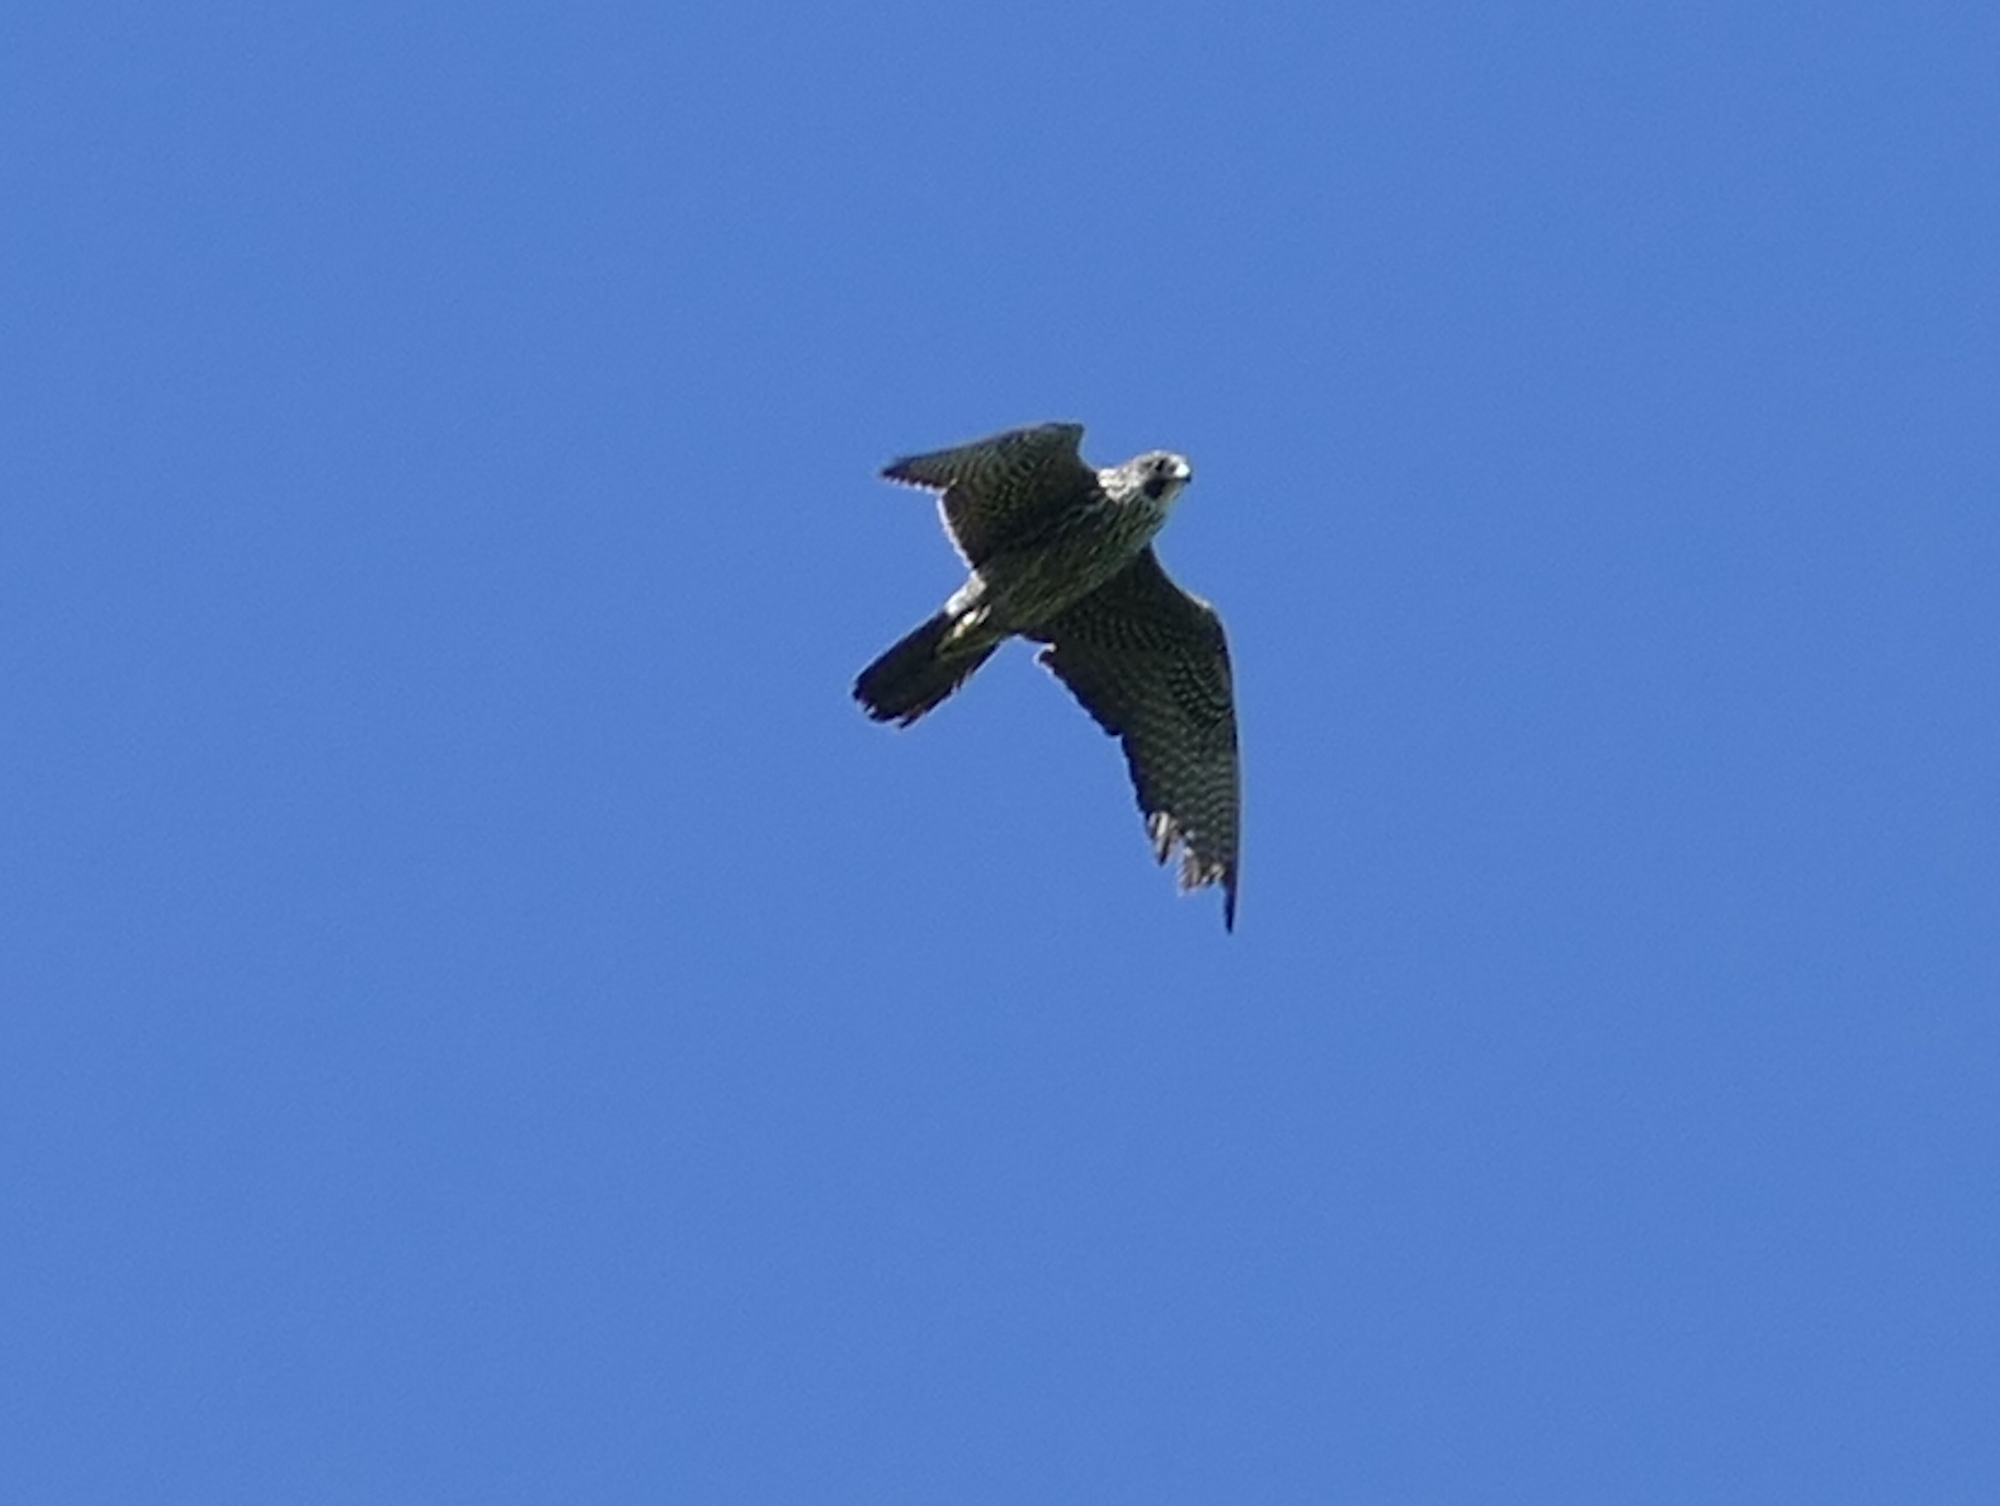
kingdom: Animalia
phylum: Chordata
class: Aves
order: Falconiformes
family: Falconidae
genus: Falco
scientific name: Falco peregrinus
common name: Peregrine falcon
